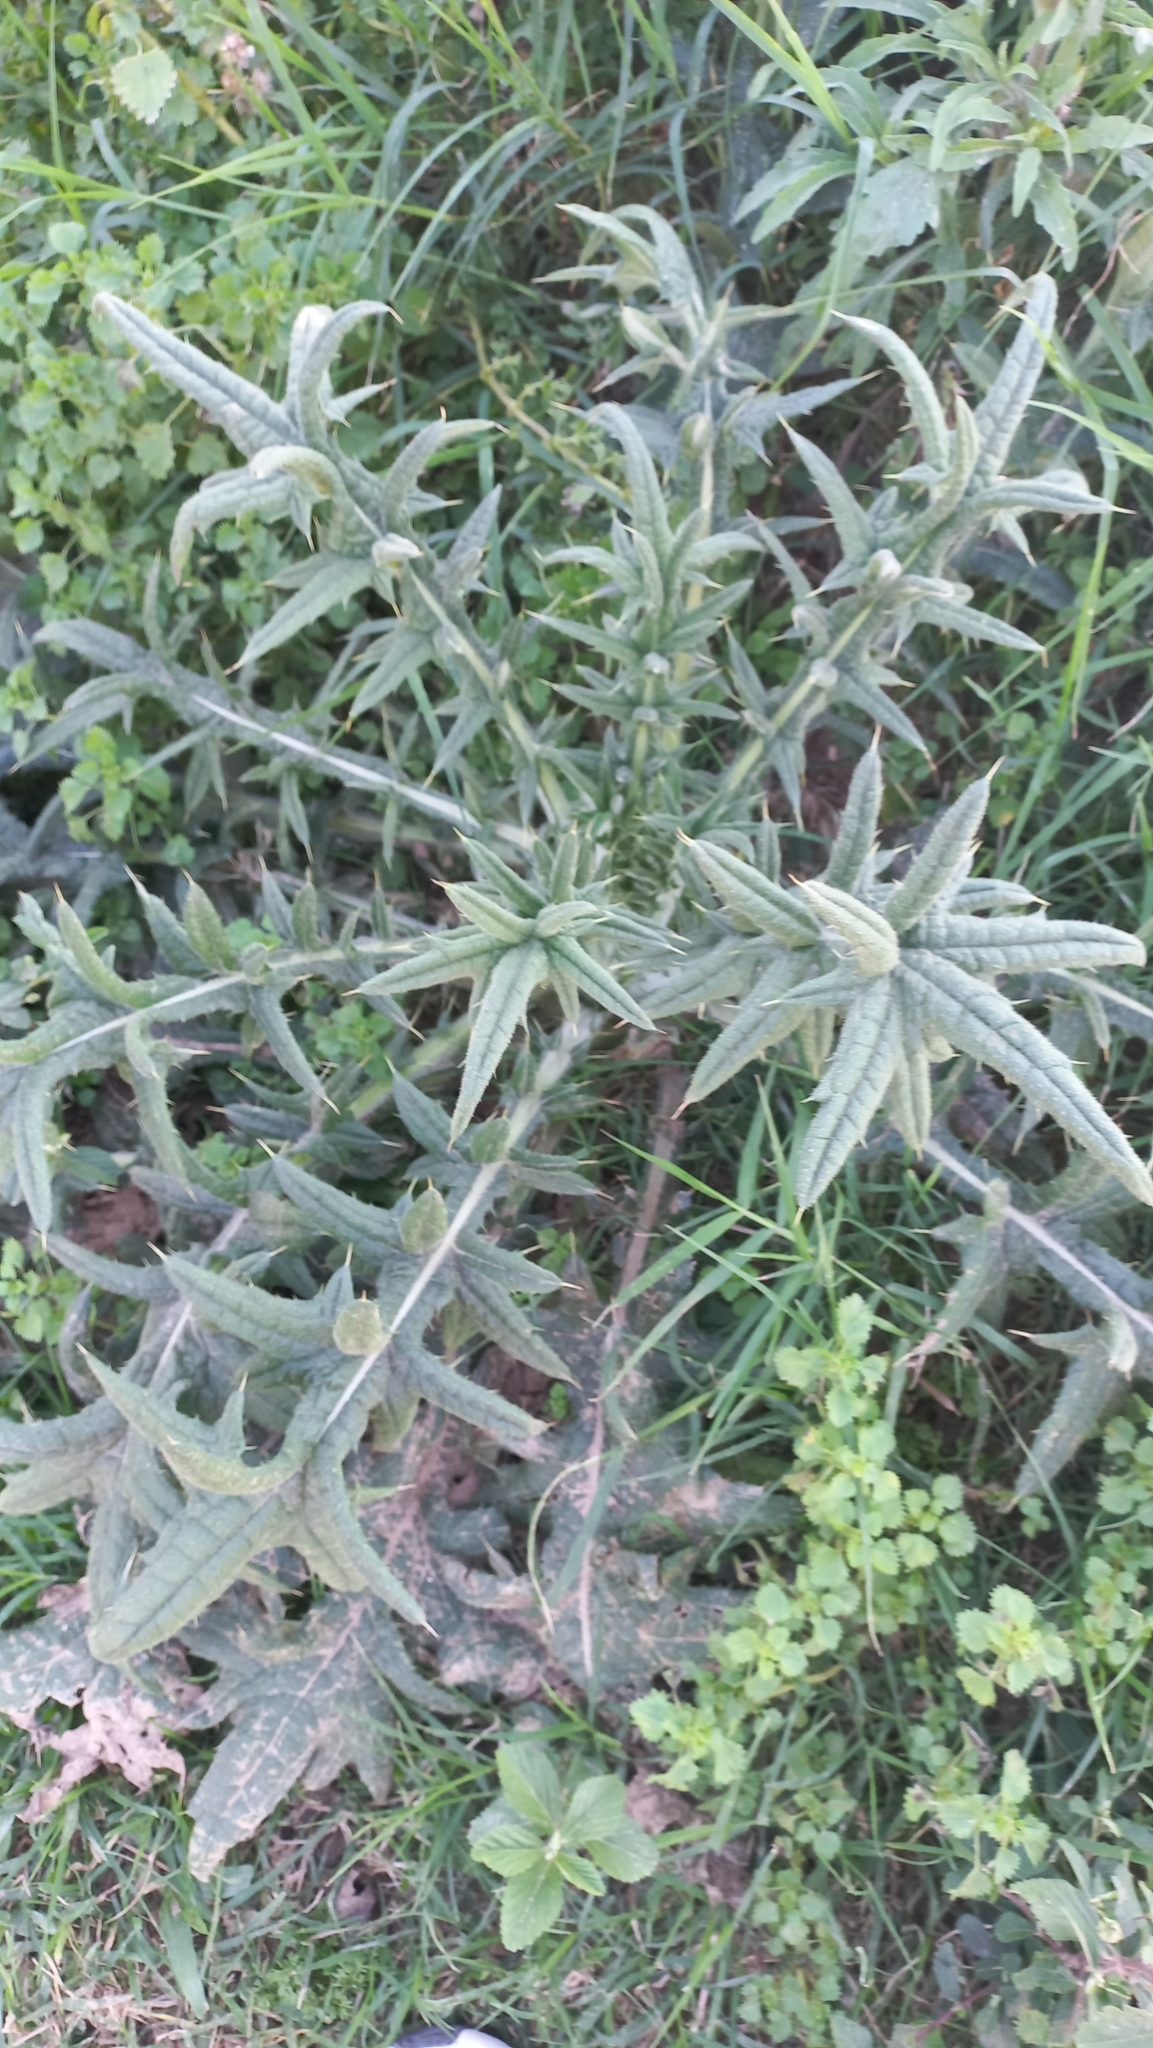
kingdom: Plantae
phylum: Tracheophyta
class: Magnoliopsida
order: Asterales
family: Asteraceae
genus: Cirsium
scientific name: Cirsium vulgare
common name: Bull thistle
